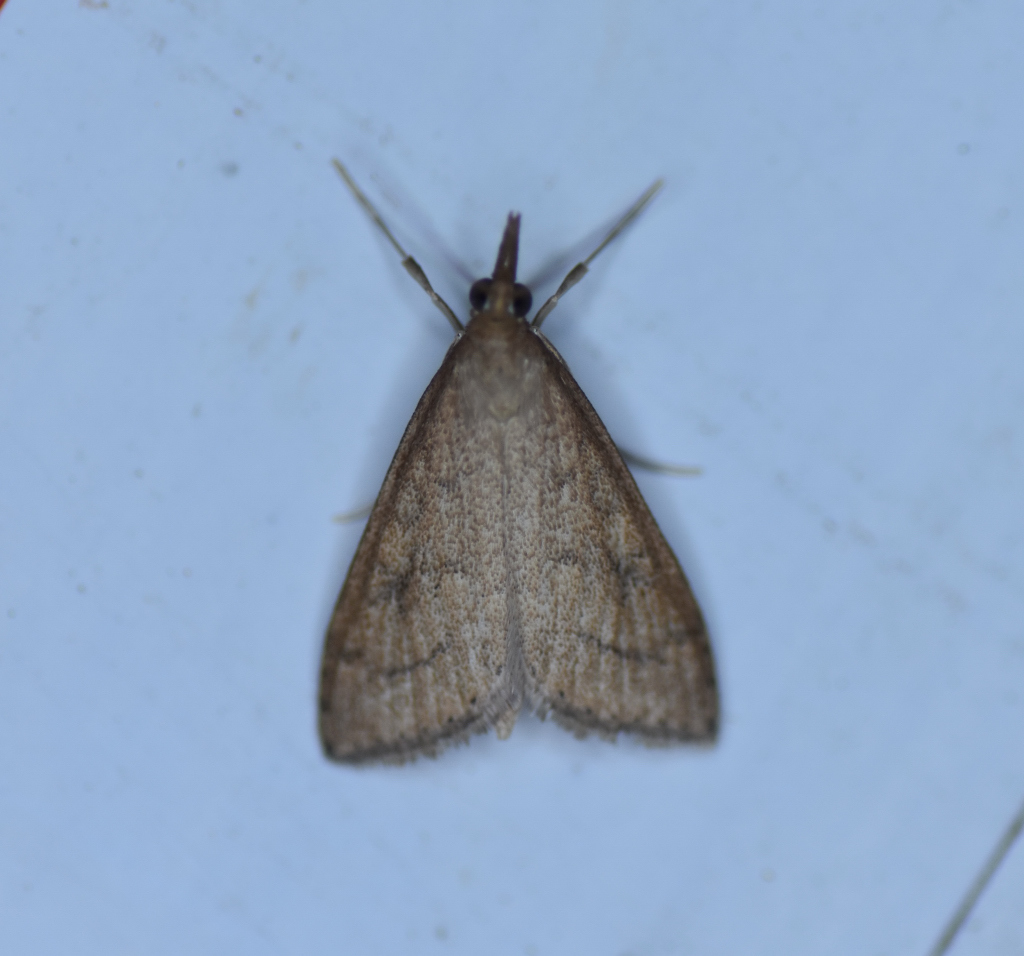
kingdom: Animalia
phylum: Arthropoda
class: Insecta
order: Lepidoptera
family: Crambidae
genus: Udea
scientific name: Udea rubigalis
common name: Celery leaftier moth
